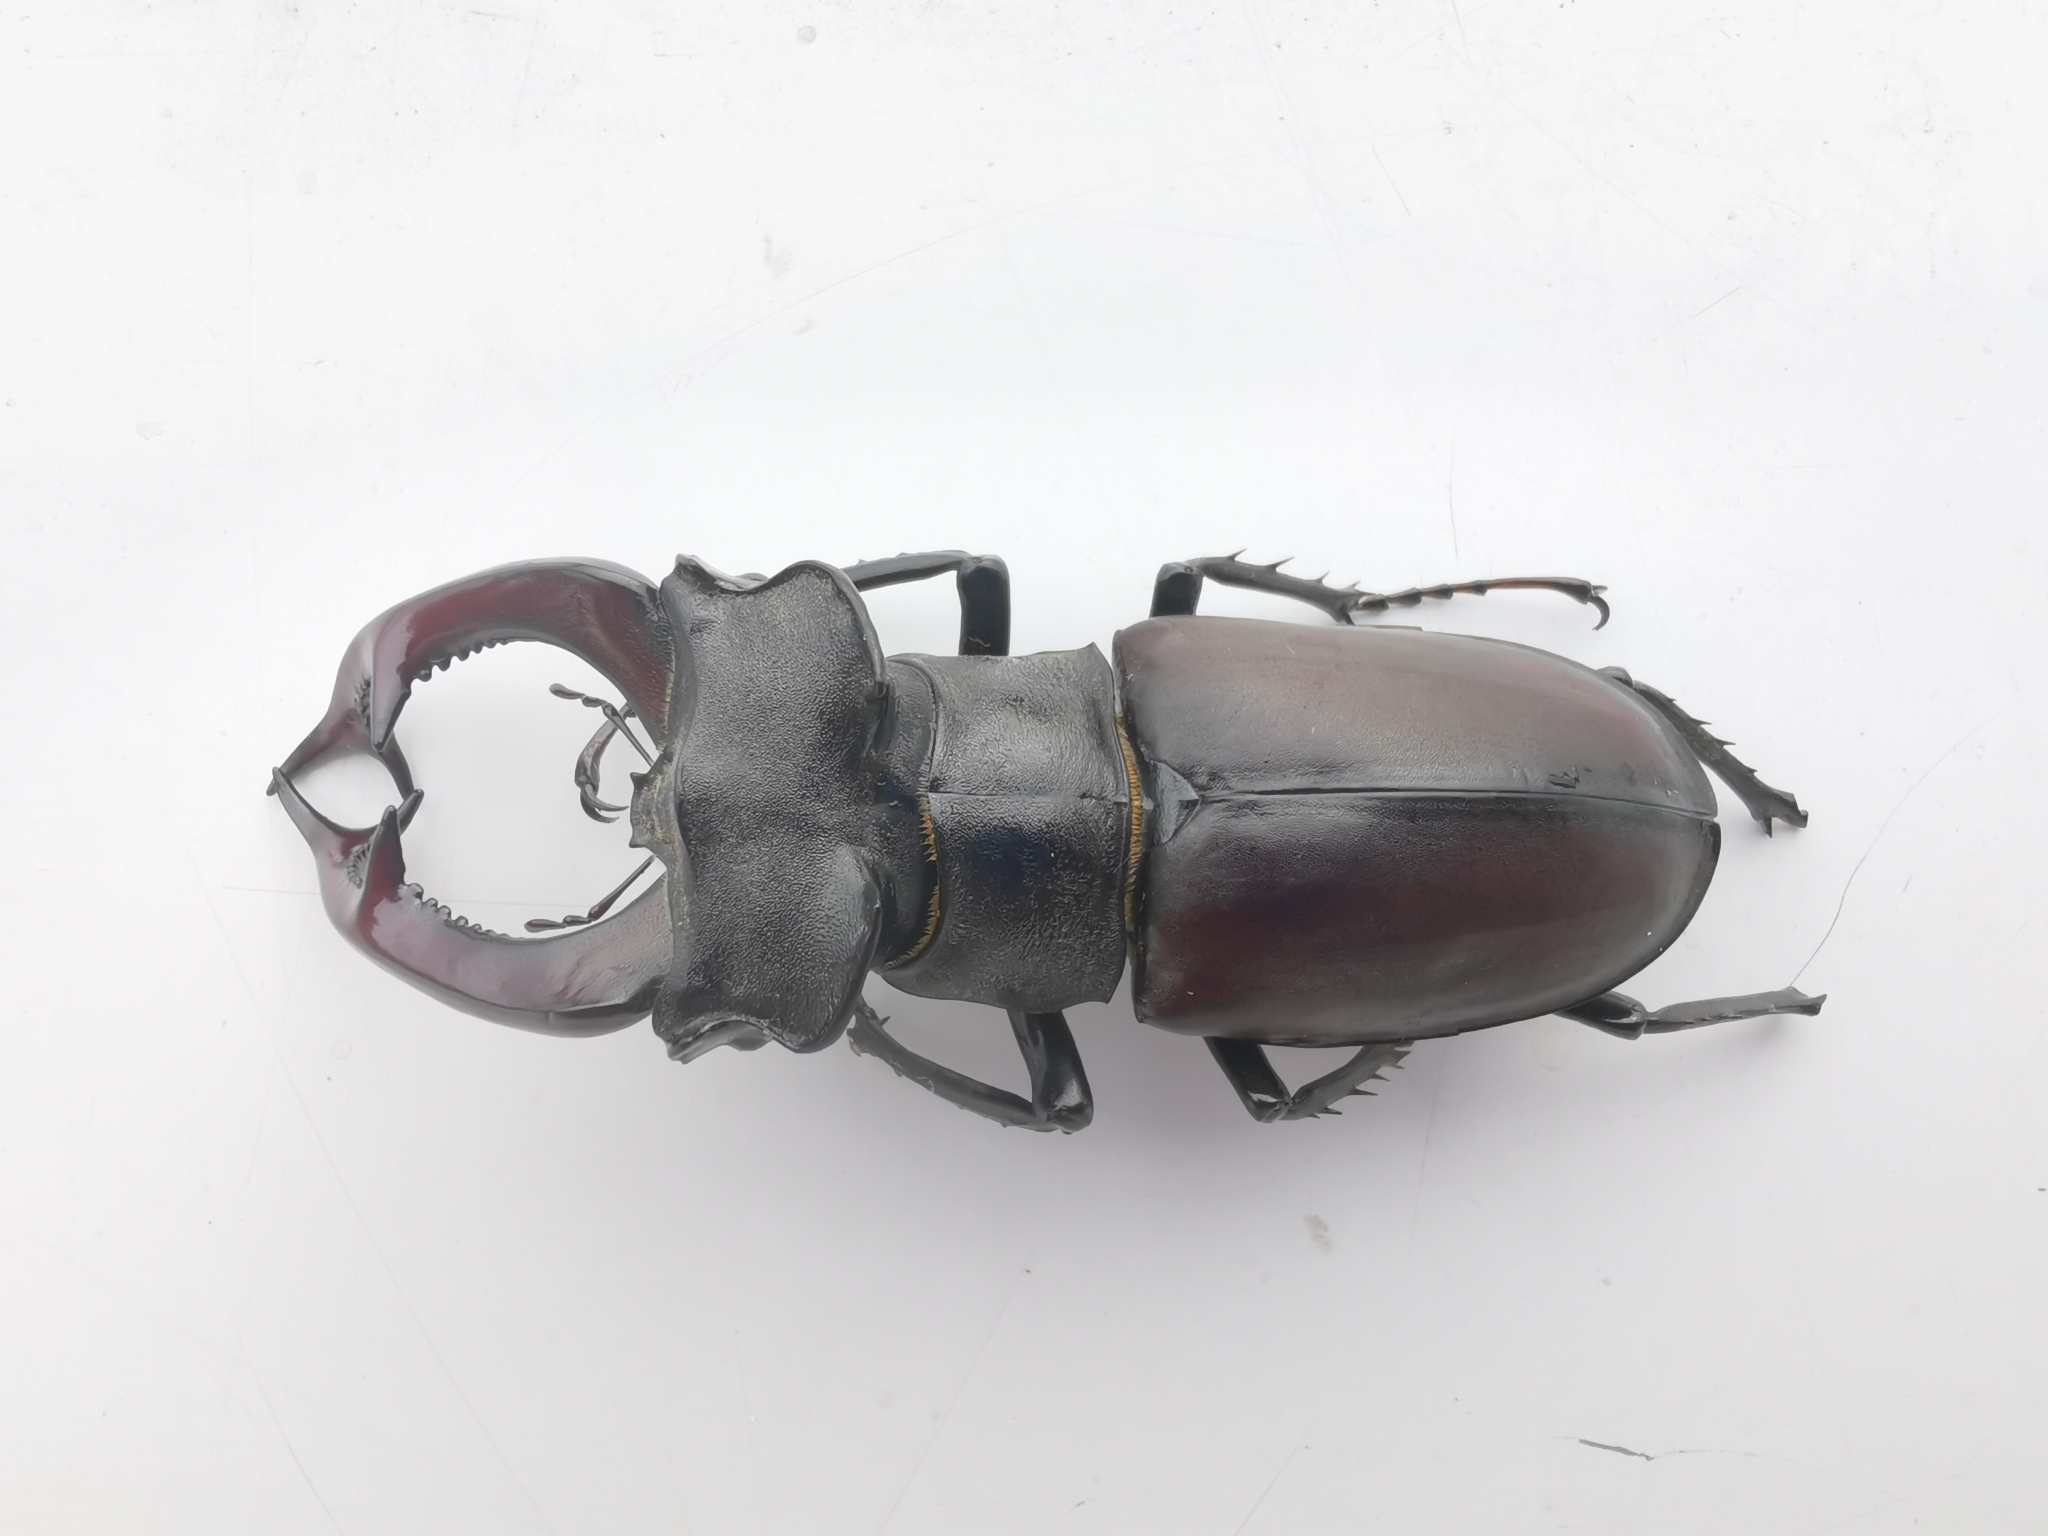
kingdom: Animalia
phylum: Arthropoda
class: Insecta
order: Coleoptera
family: Lucanidae
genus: Lucanus
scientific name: Lucanus cervus
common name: Stag beetle
